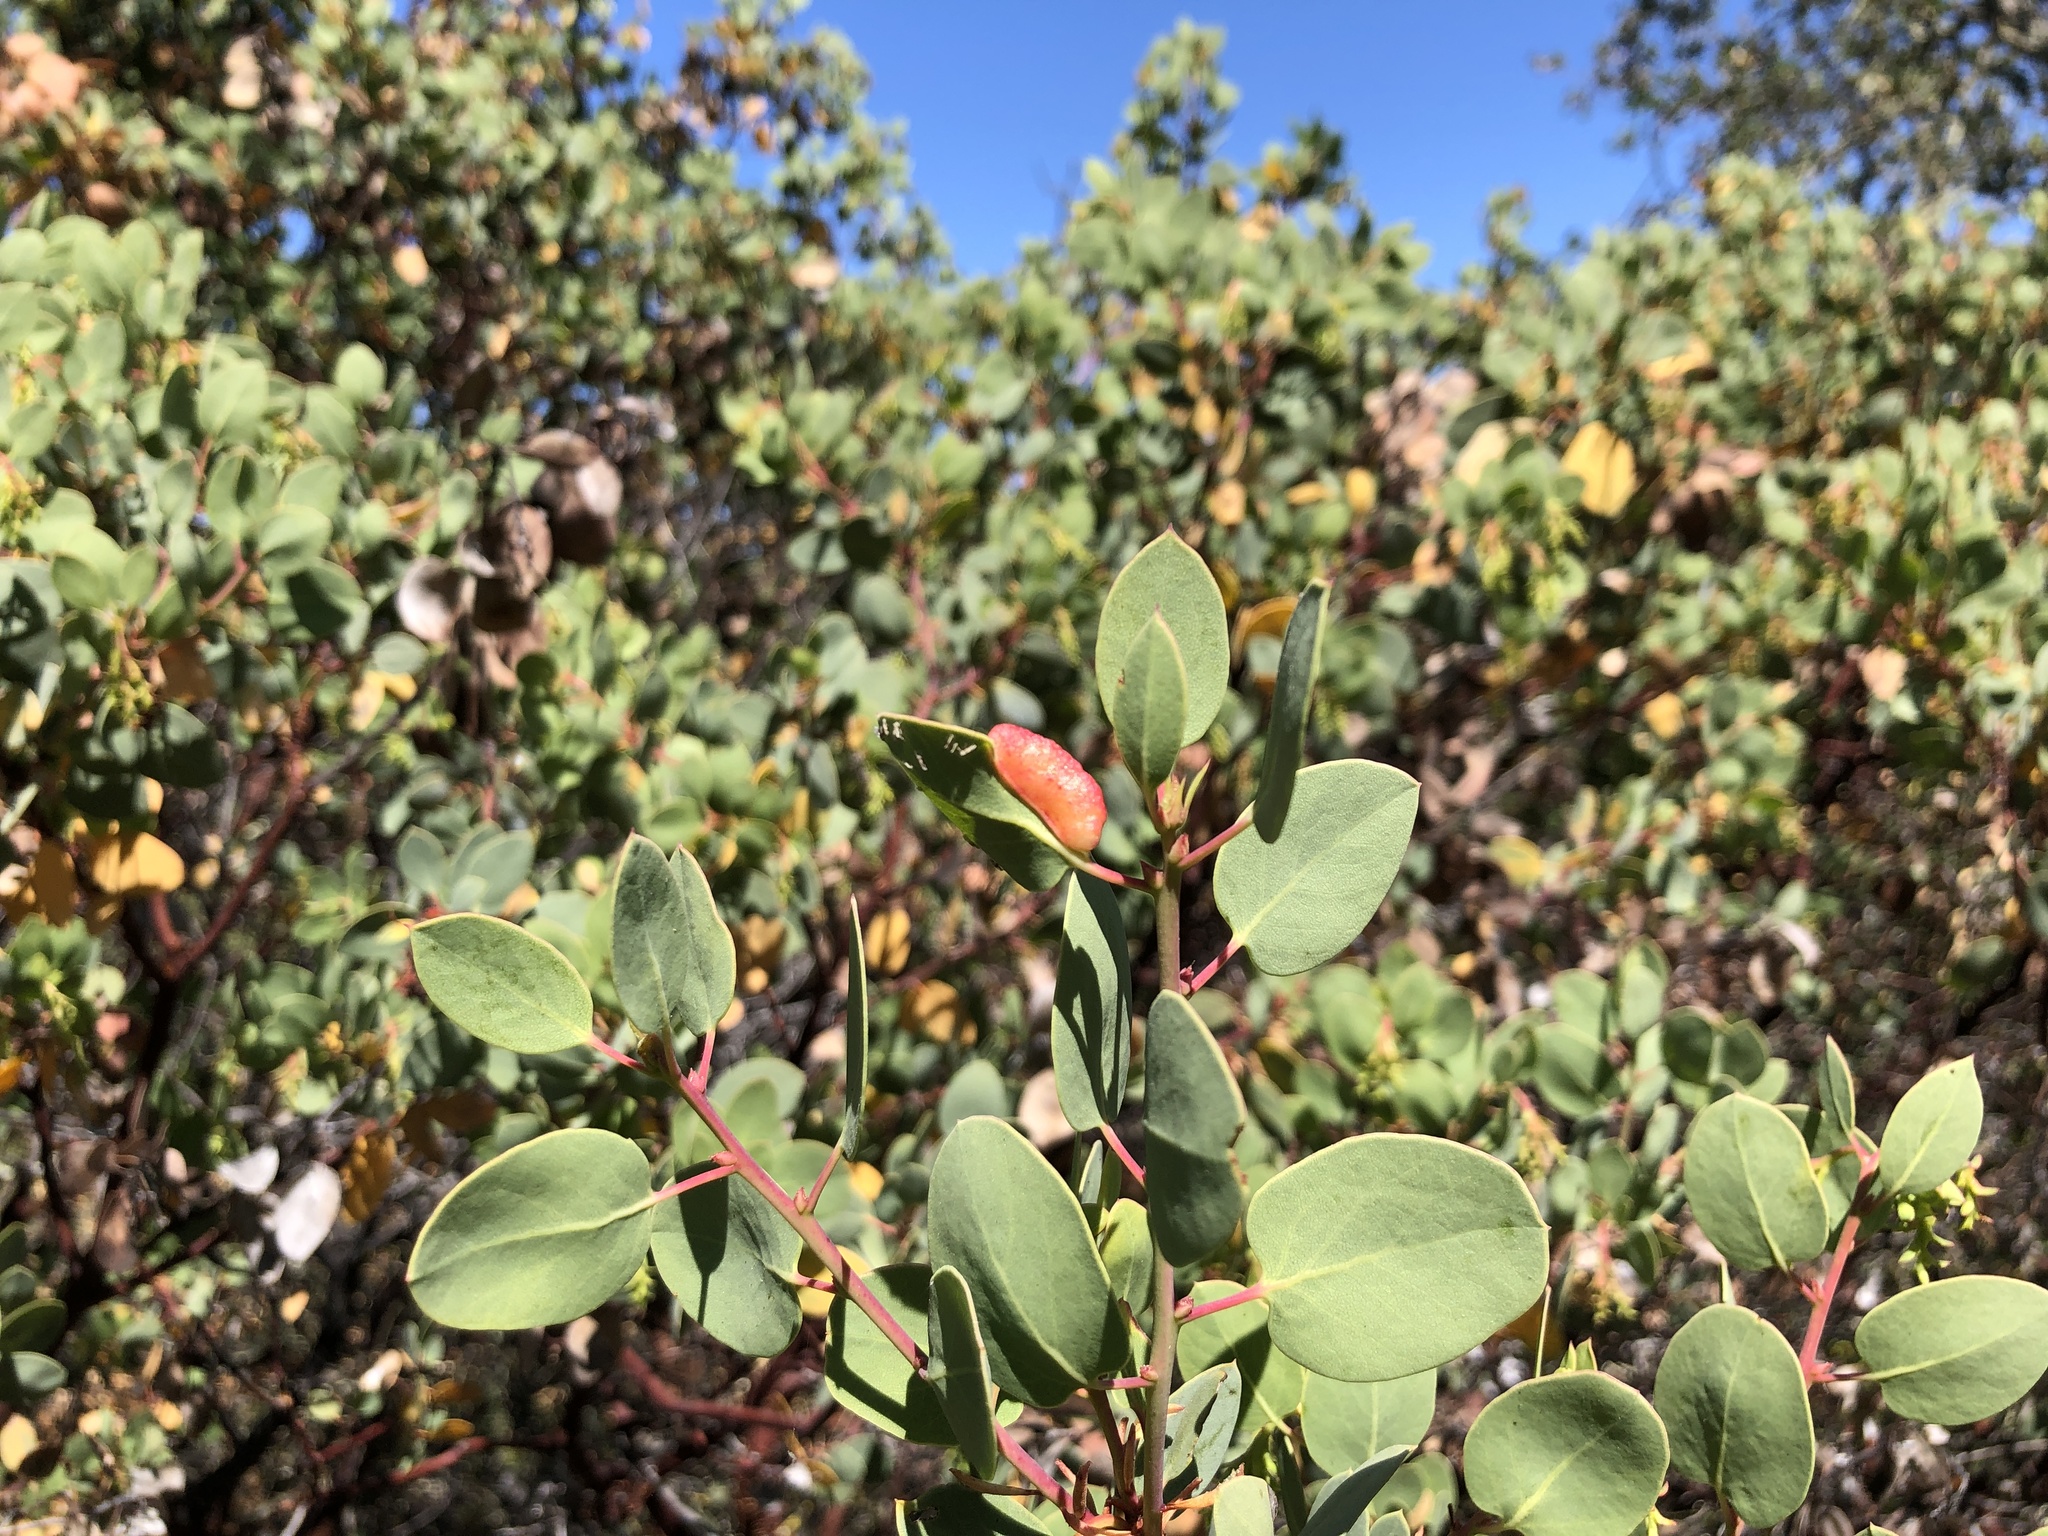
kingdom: Plantae
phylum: Tracheophyta
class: Magnoliopsida
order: Ericales
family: Ericaceae
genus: Arctostaphylos
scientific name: Arctostaphylos glauca
